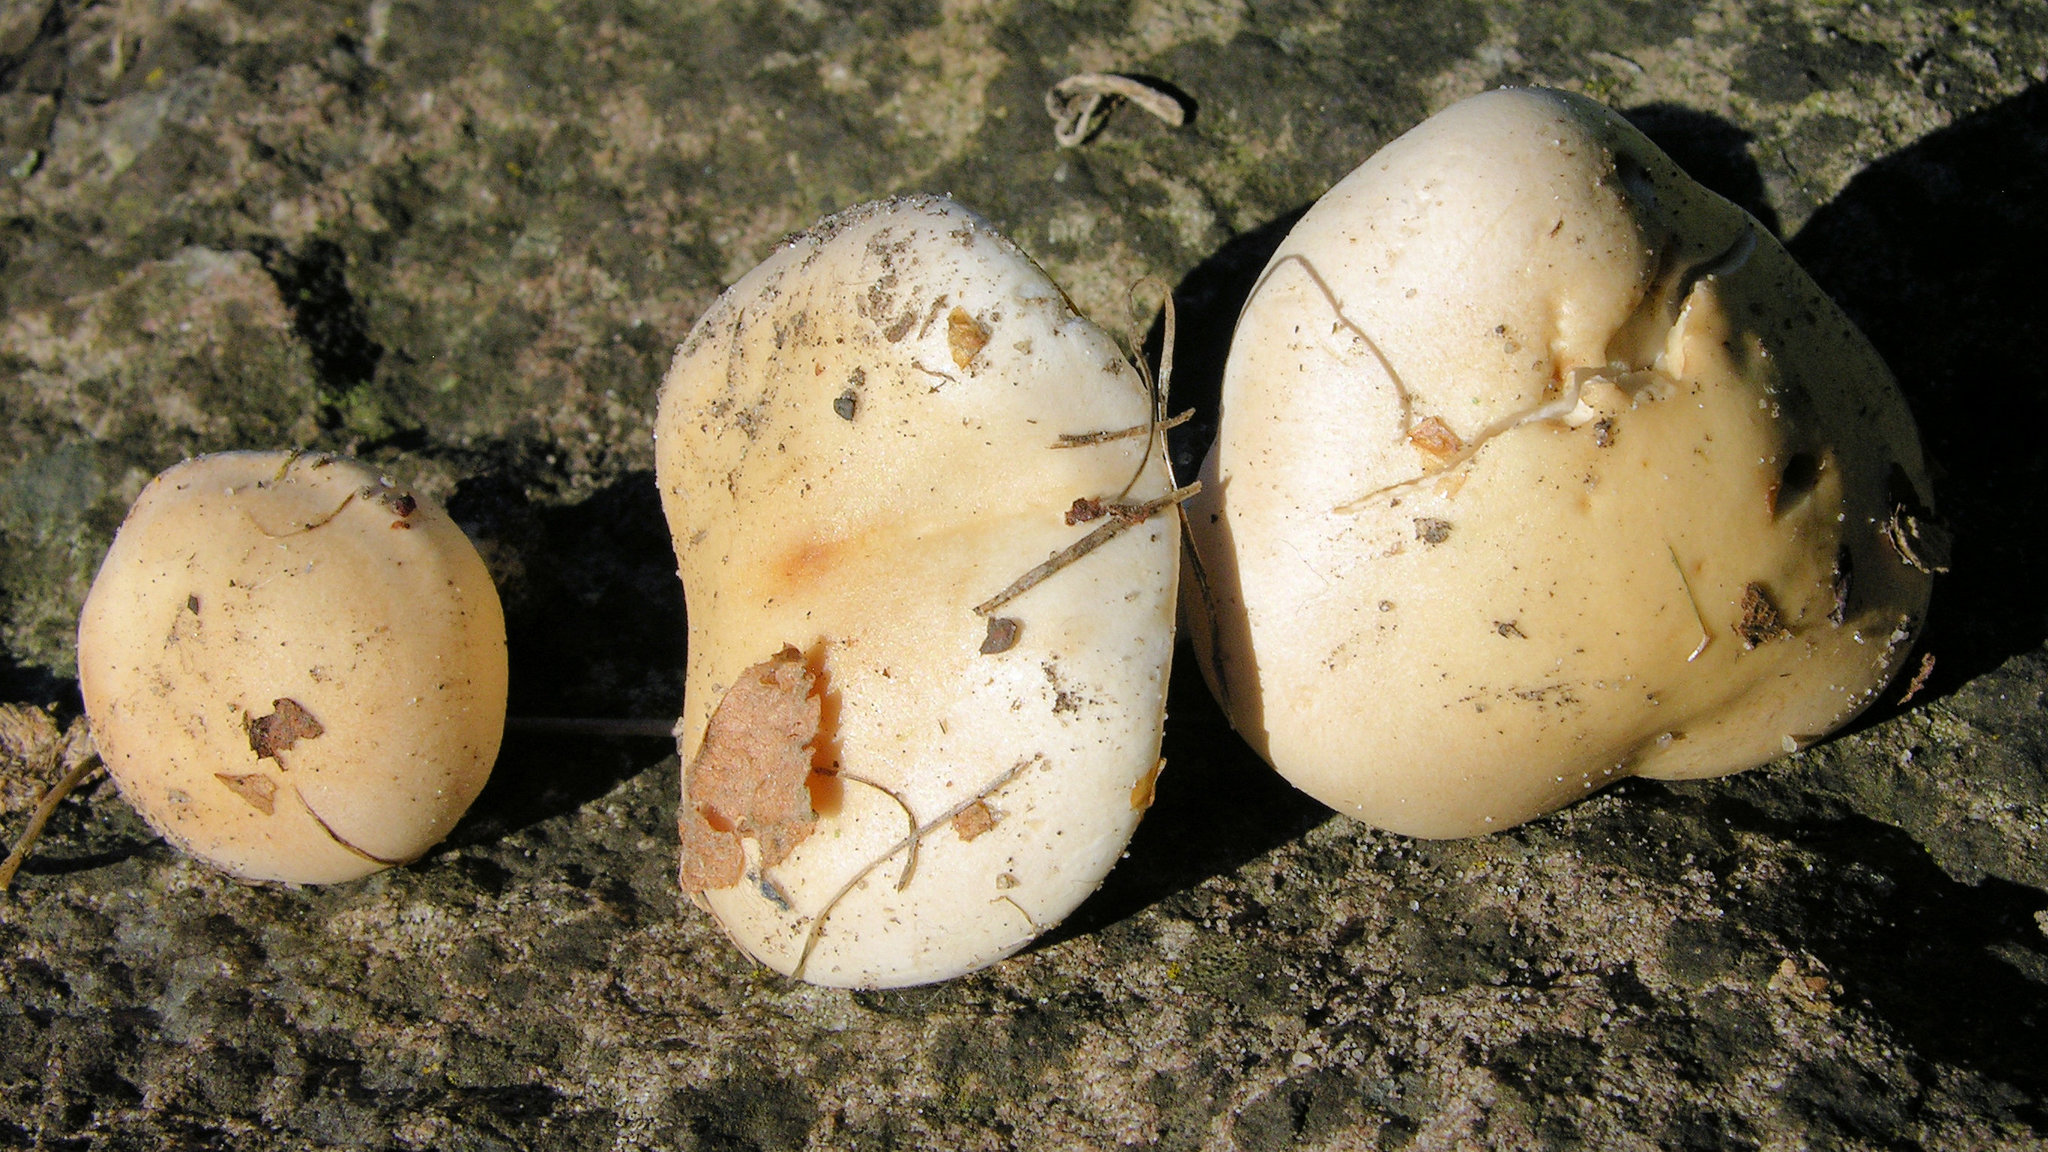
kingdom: Fungi
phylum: Basidiomycota
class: Agaricomycetes
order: Agaricales
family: Hymenogastraceae
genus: Hebeloma
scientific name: Hebeloma leucosarx
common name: Birch poisonpie
